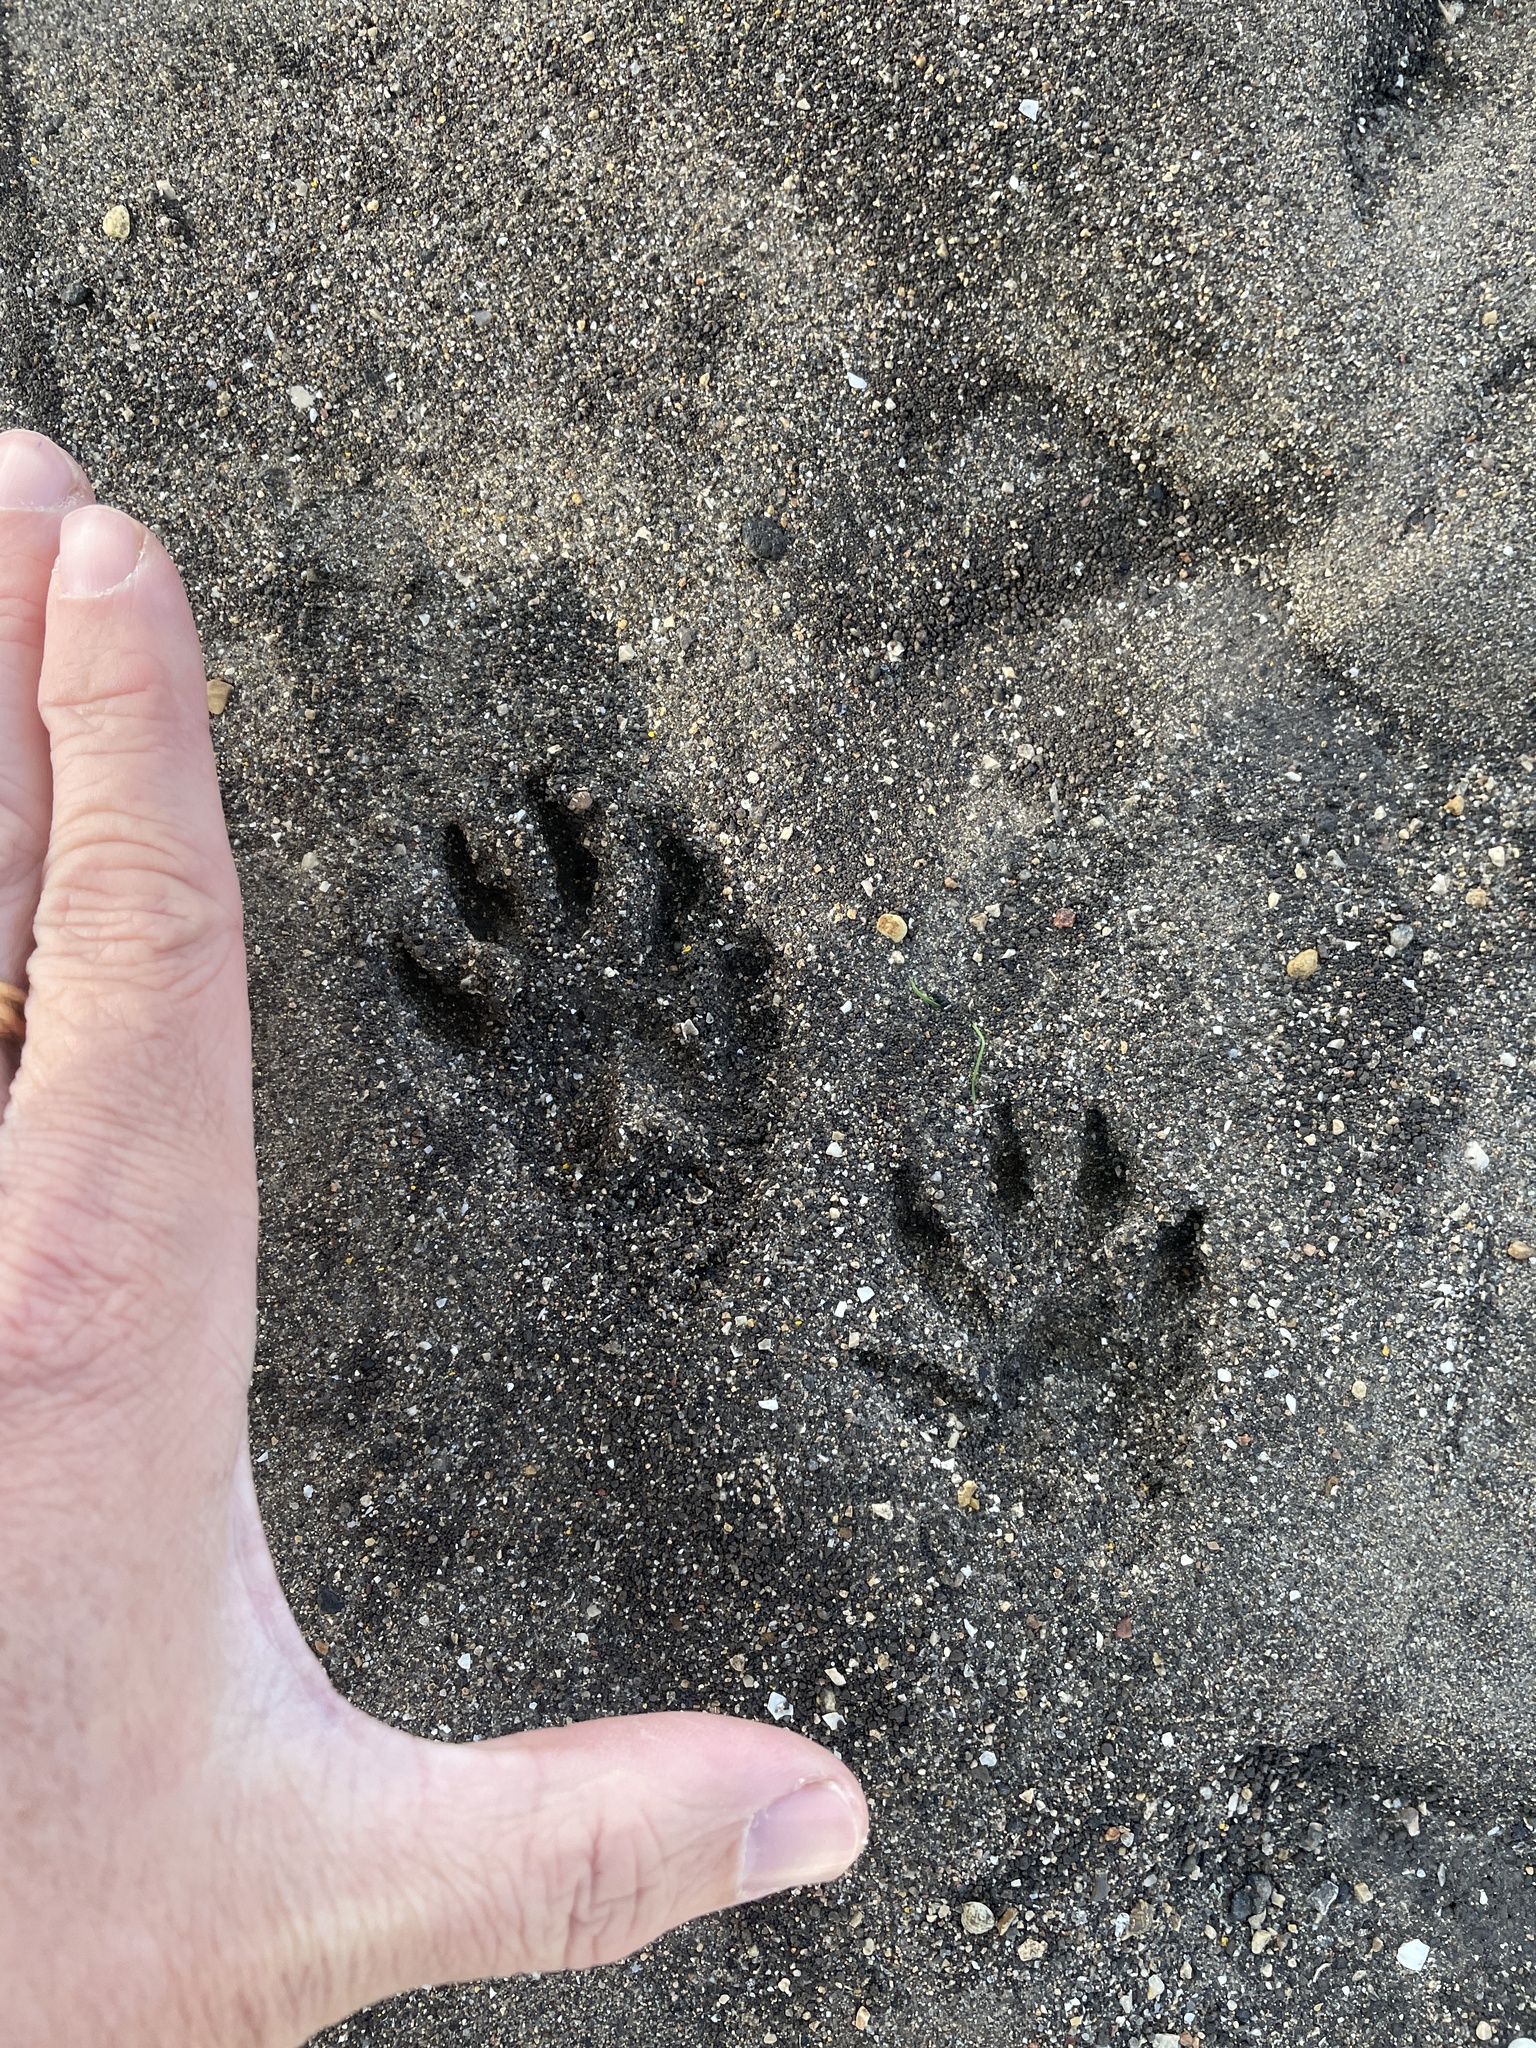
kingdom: Animalia
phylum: Chordata
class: Mammalia
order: Carnivora
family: Procyonidae
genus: Procyon
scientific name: Procyon lotor
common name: Raccoon
